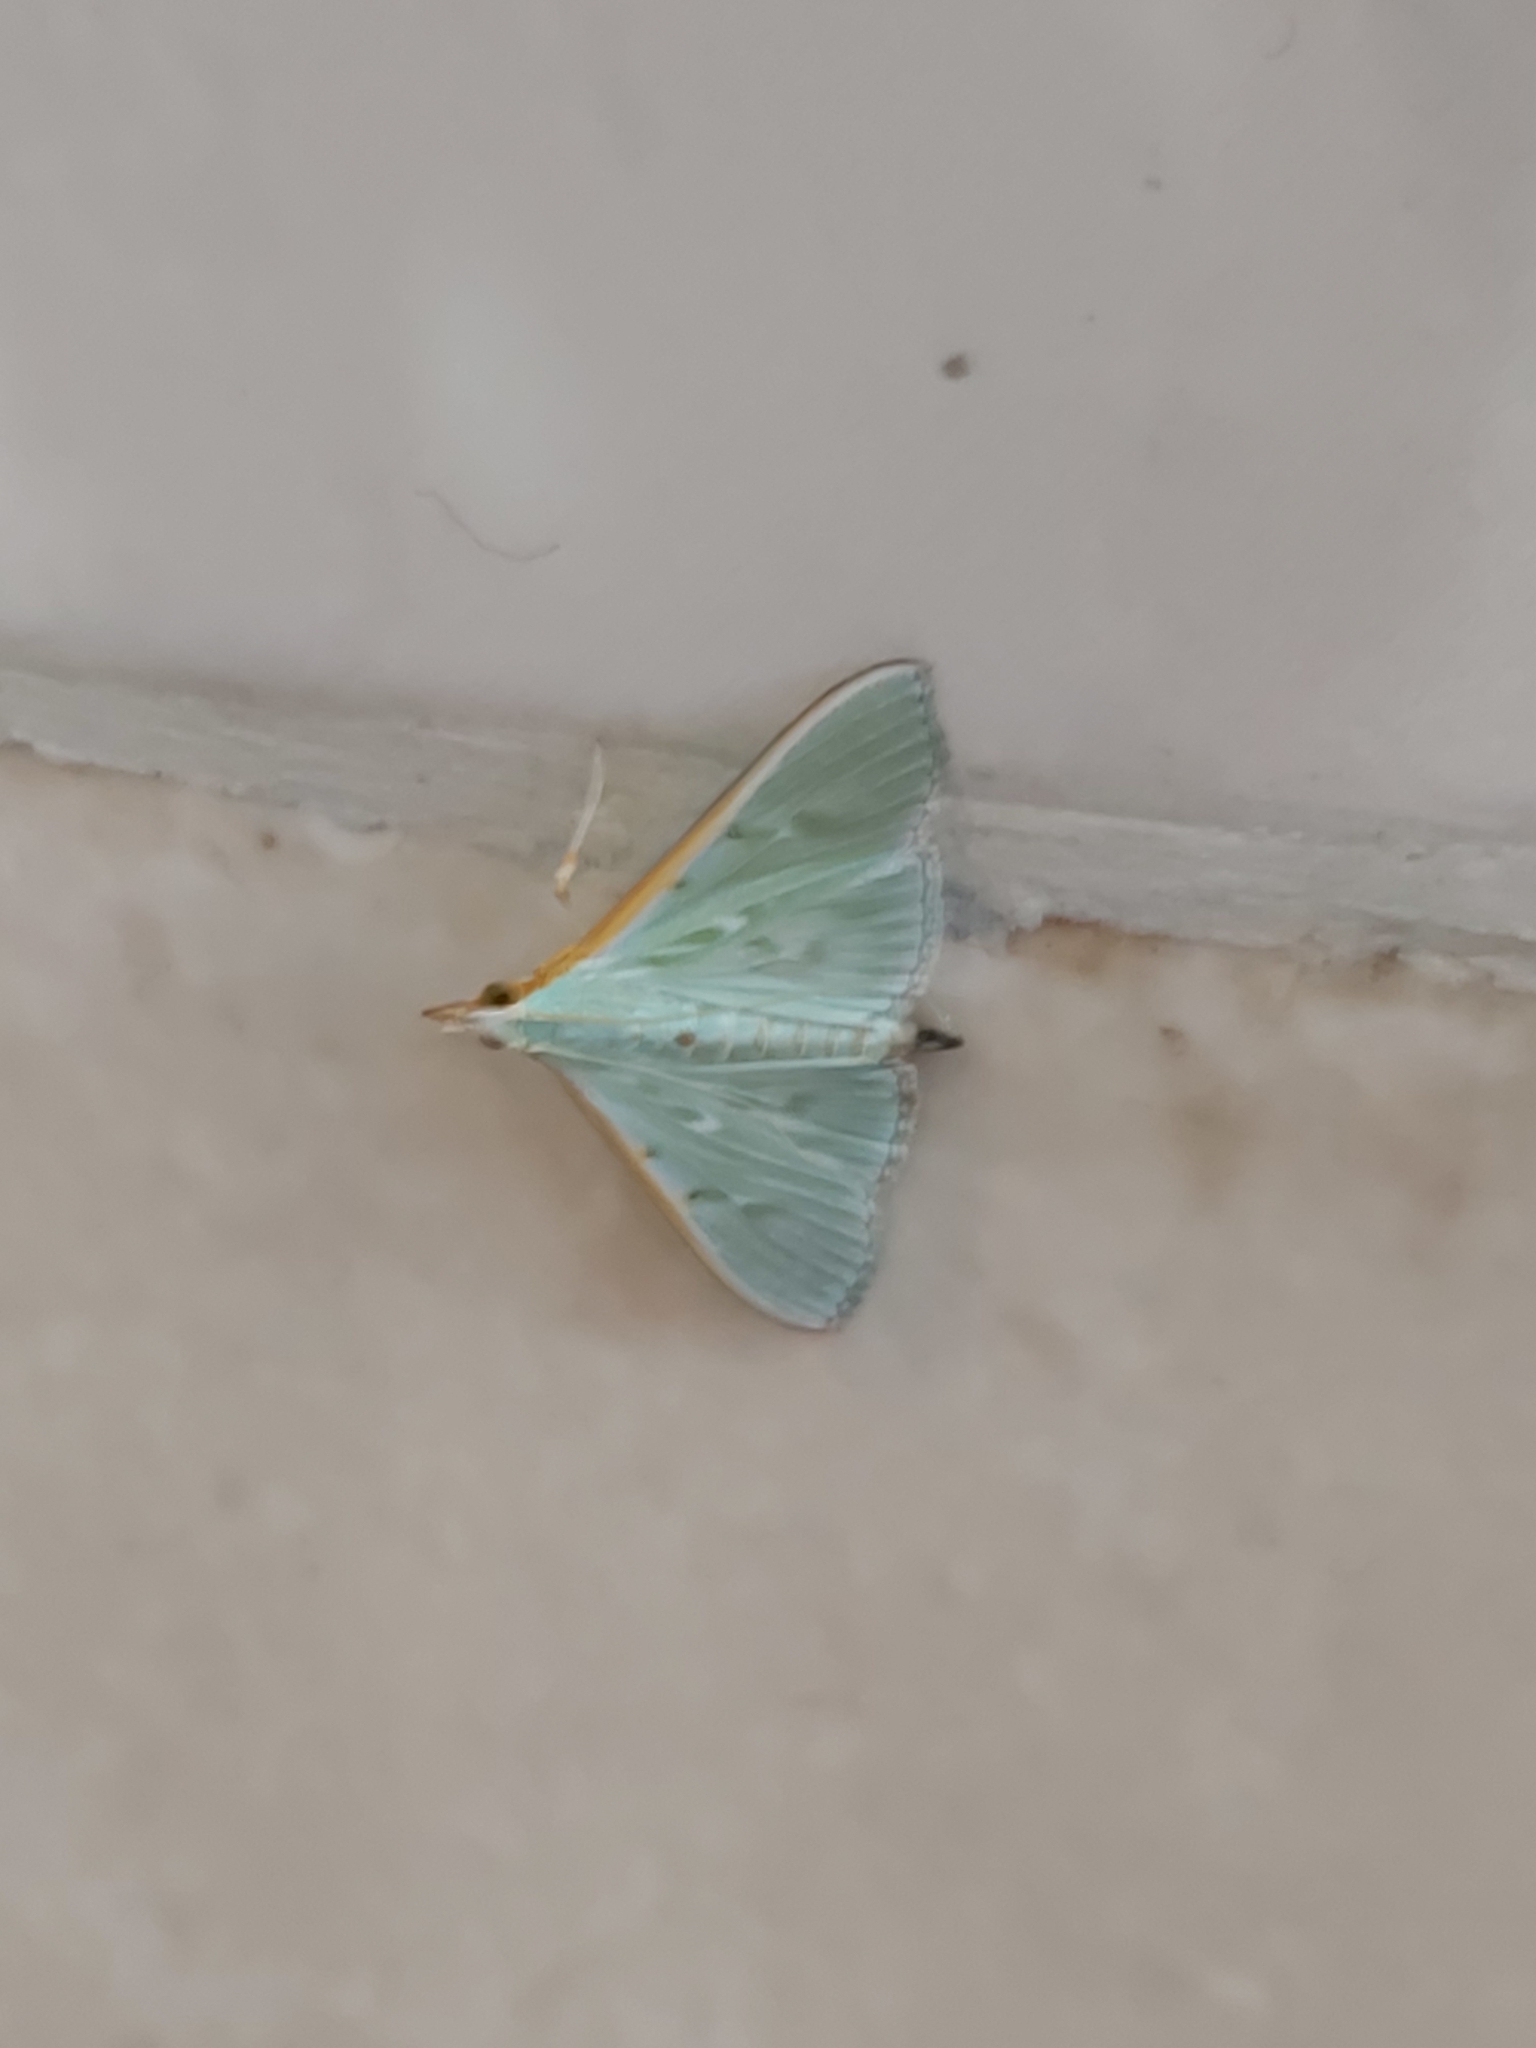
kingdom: Animalia
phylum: Arthropoda
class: Insecta
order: Lepidoptera
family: Crambidae
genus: Arthroschista
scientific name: Arthroschista hilaralis
